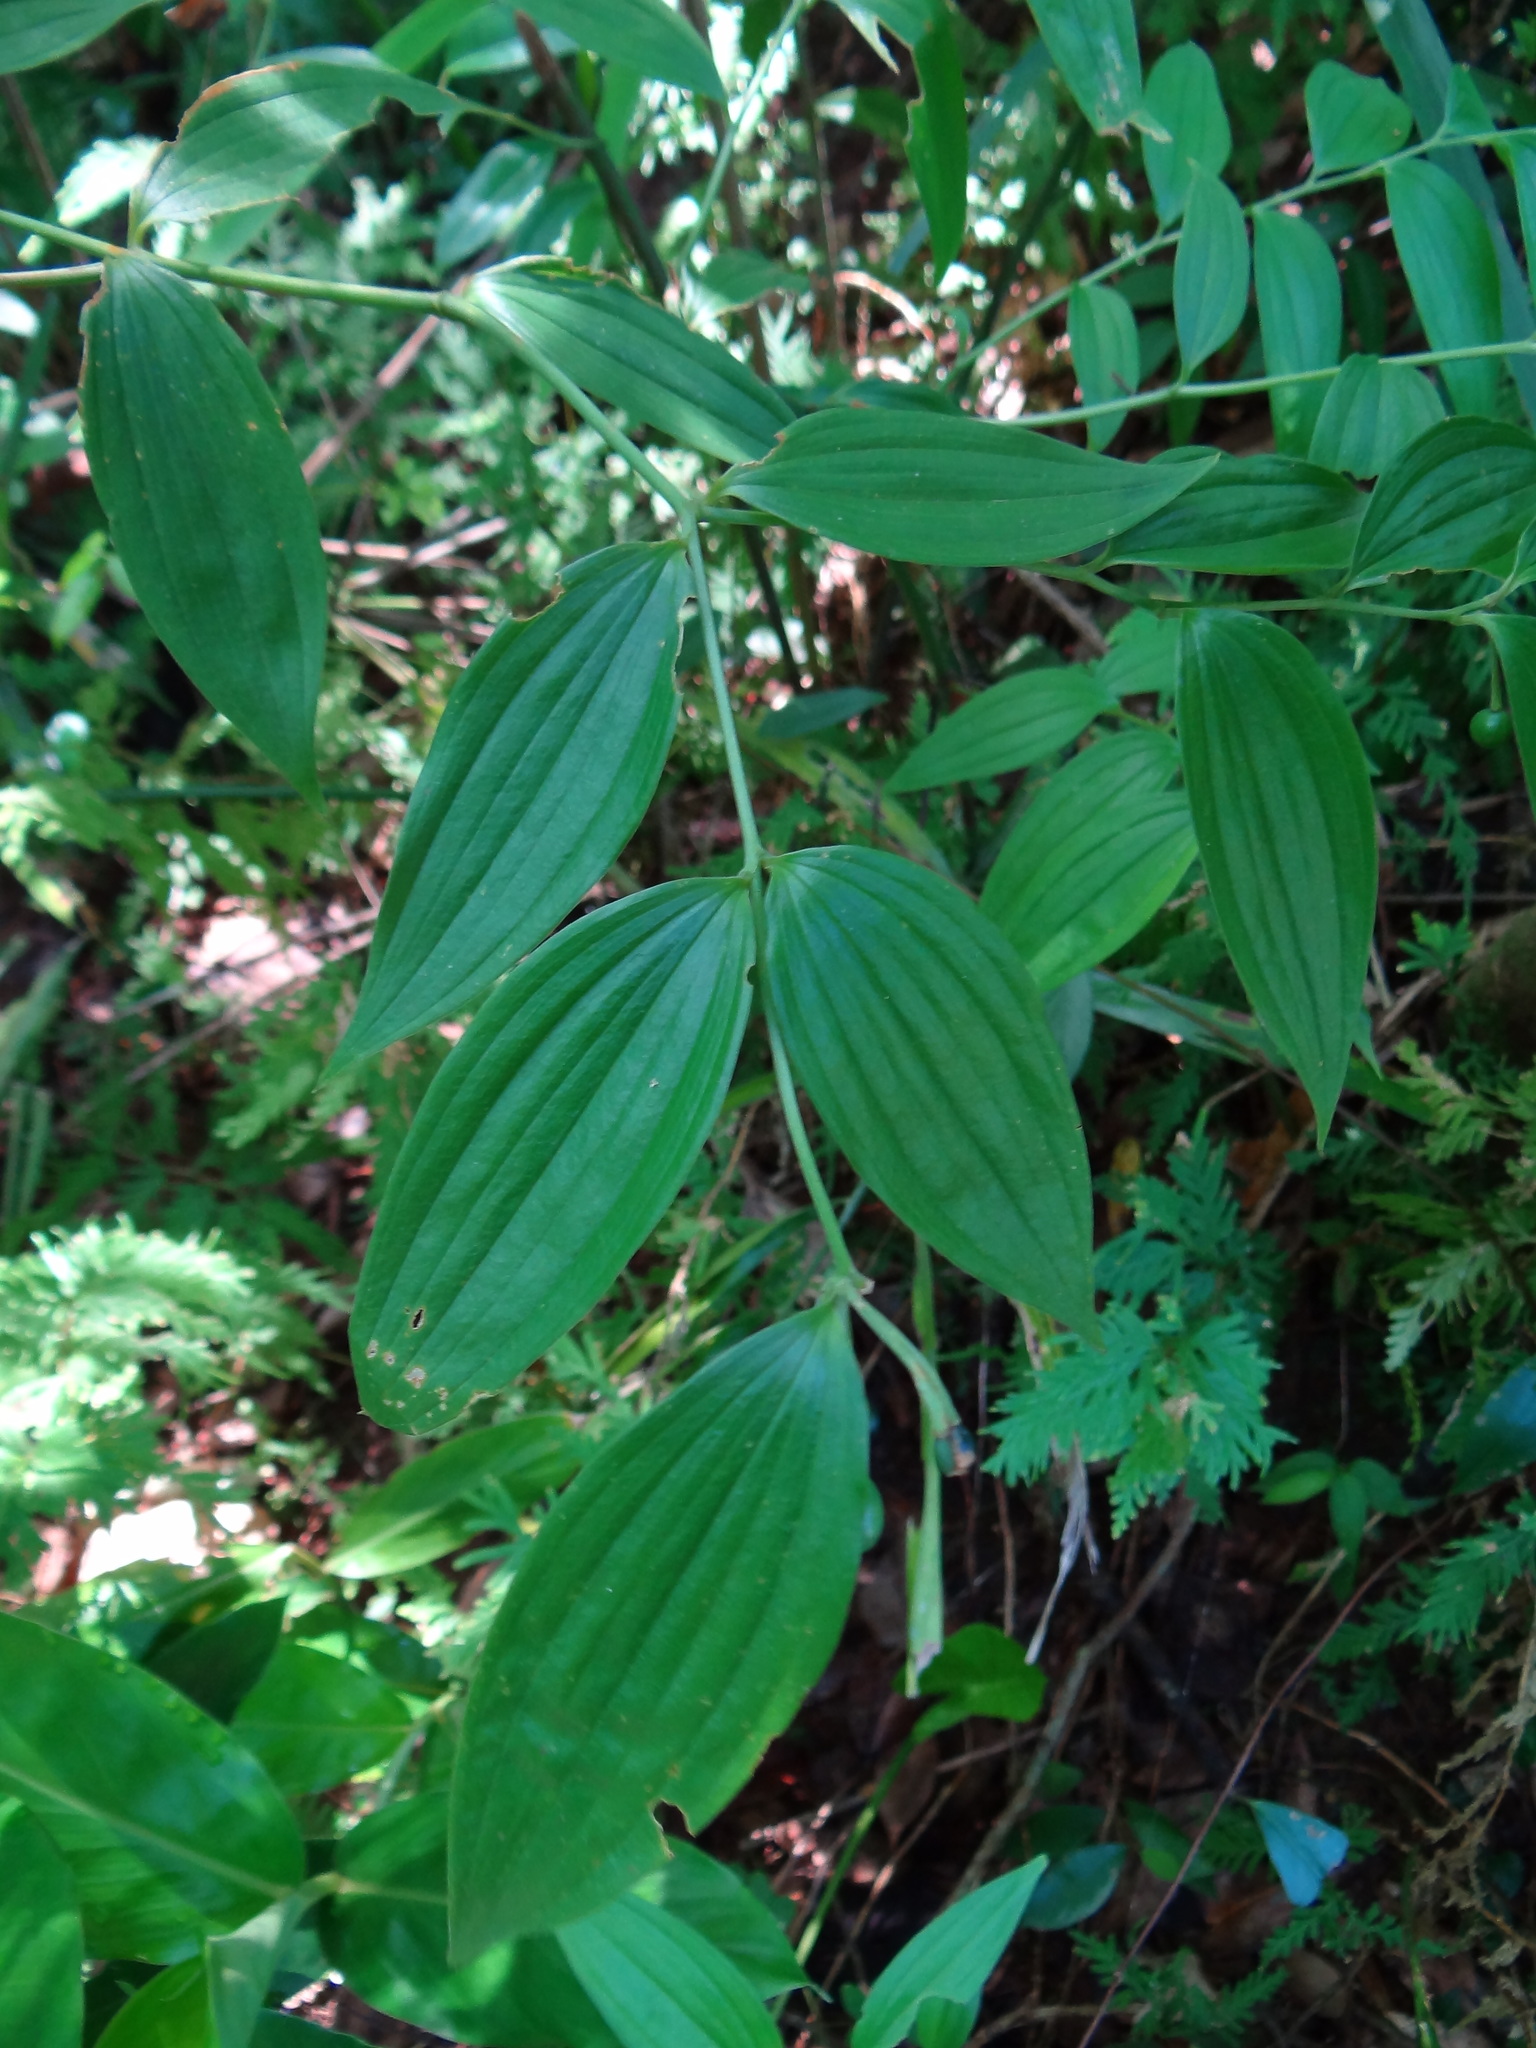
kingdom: Plantae
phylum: Tracheophyta
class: Liliopsida
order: Liliales
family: Colchicaceae
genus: Disporum
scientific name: Disporum kawakamii
